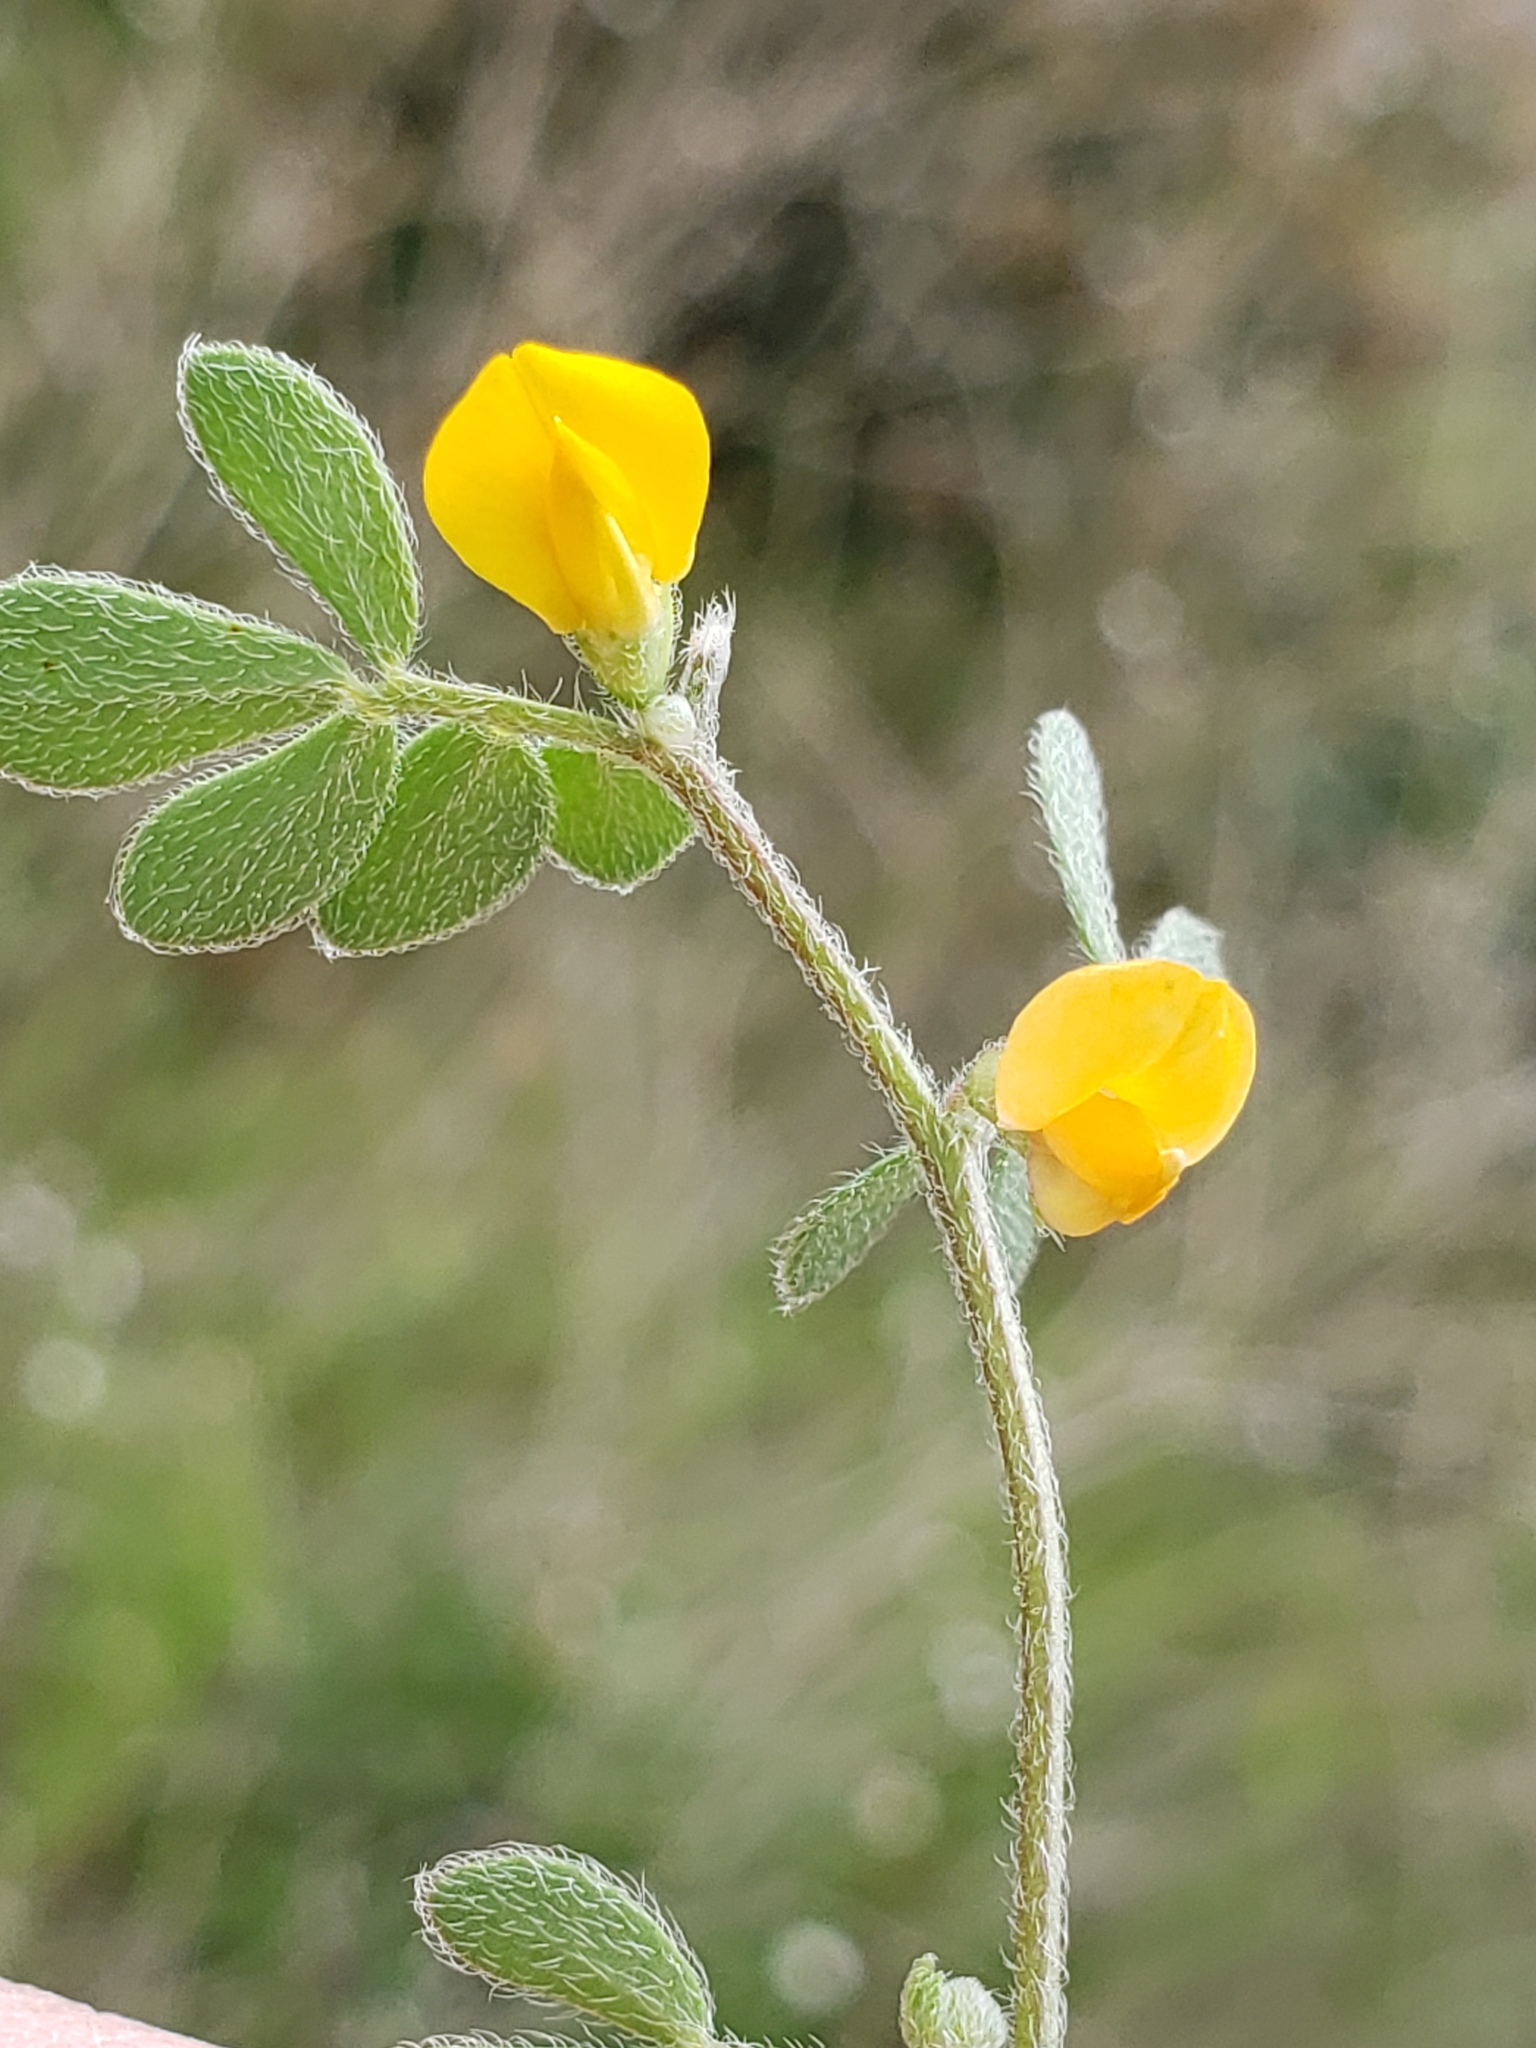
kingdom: Plantae
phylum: Tracheophyta
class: Magnoliopsida
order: Fabales
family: Fabaceae
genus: Acmispon
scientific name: Acmispon wrangelianus
